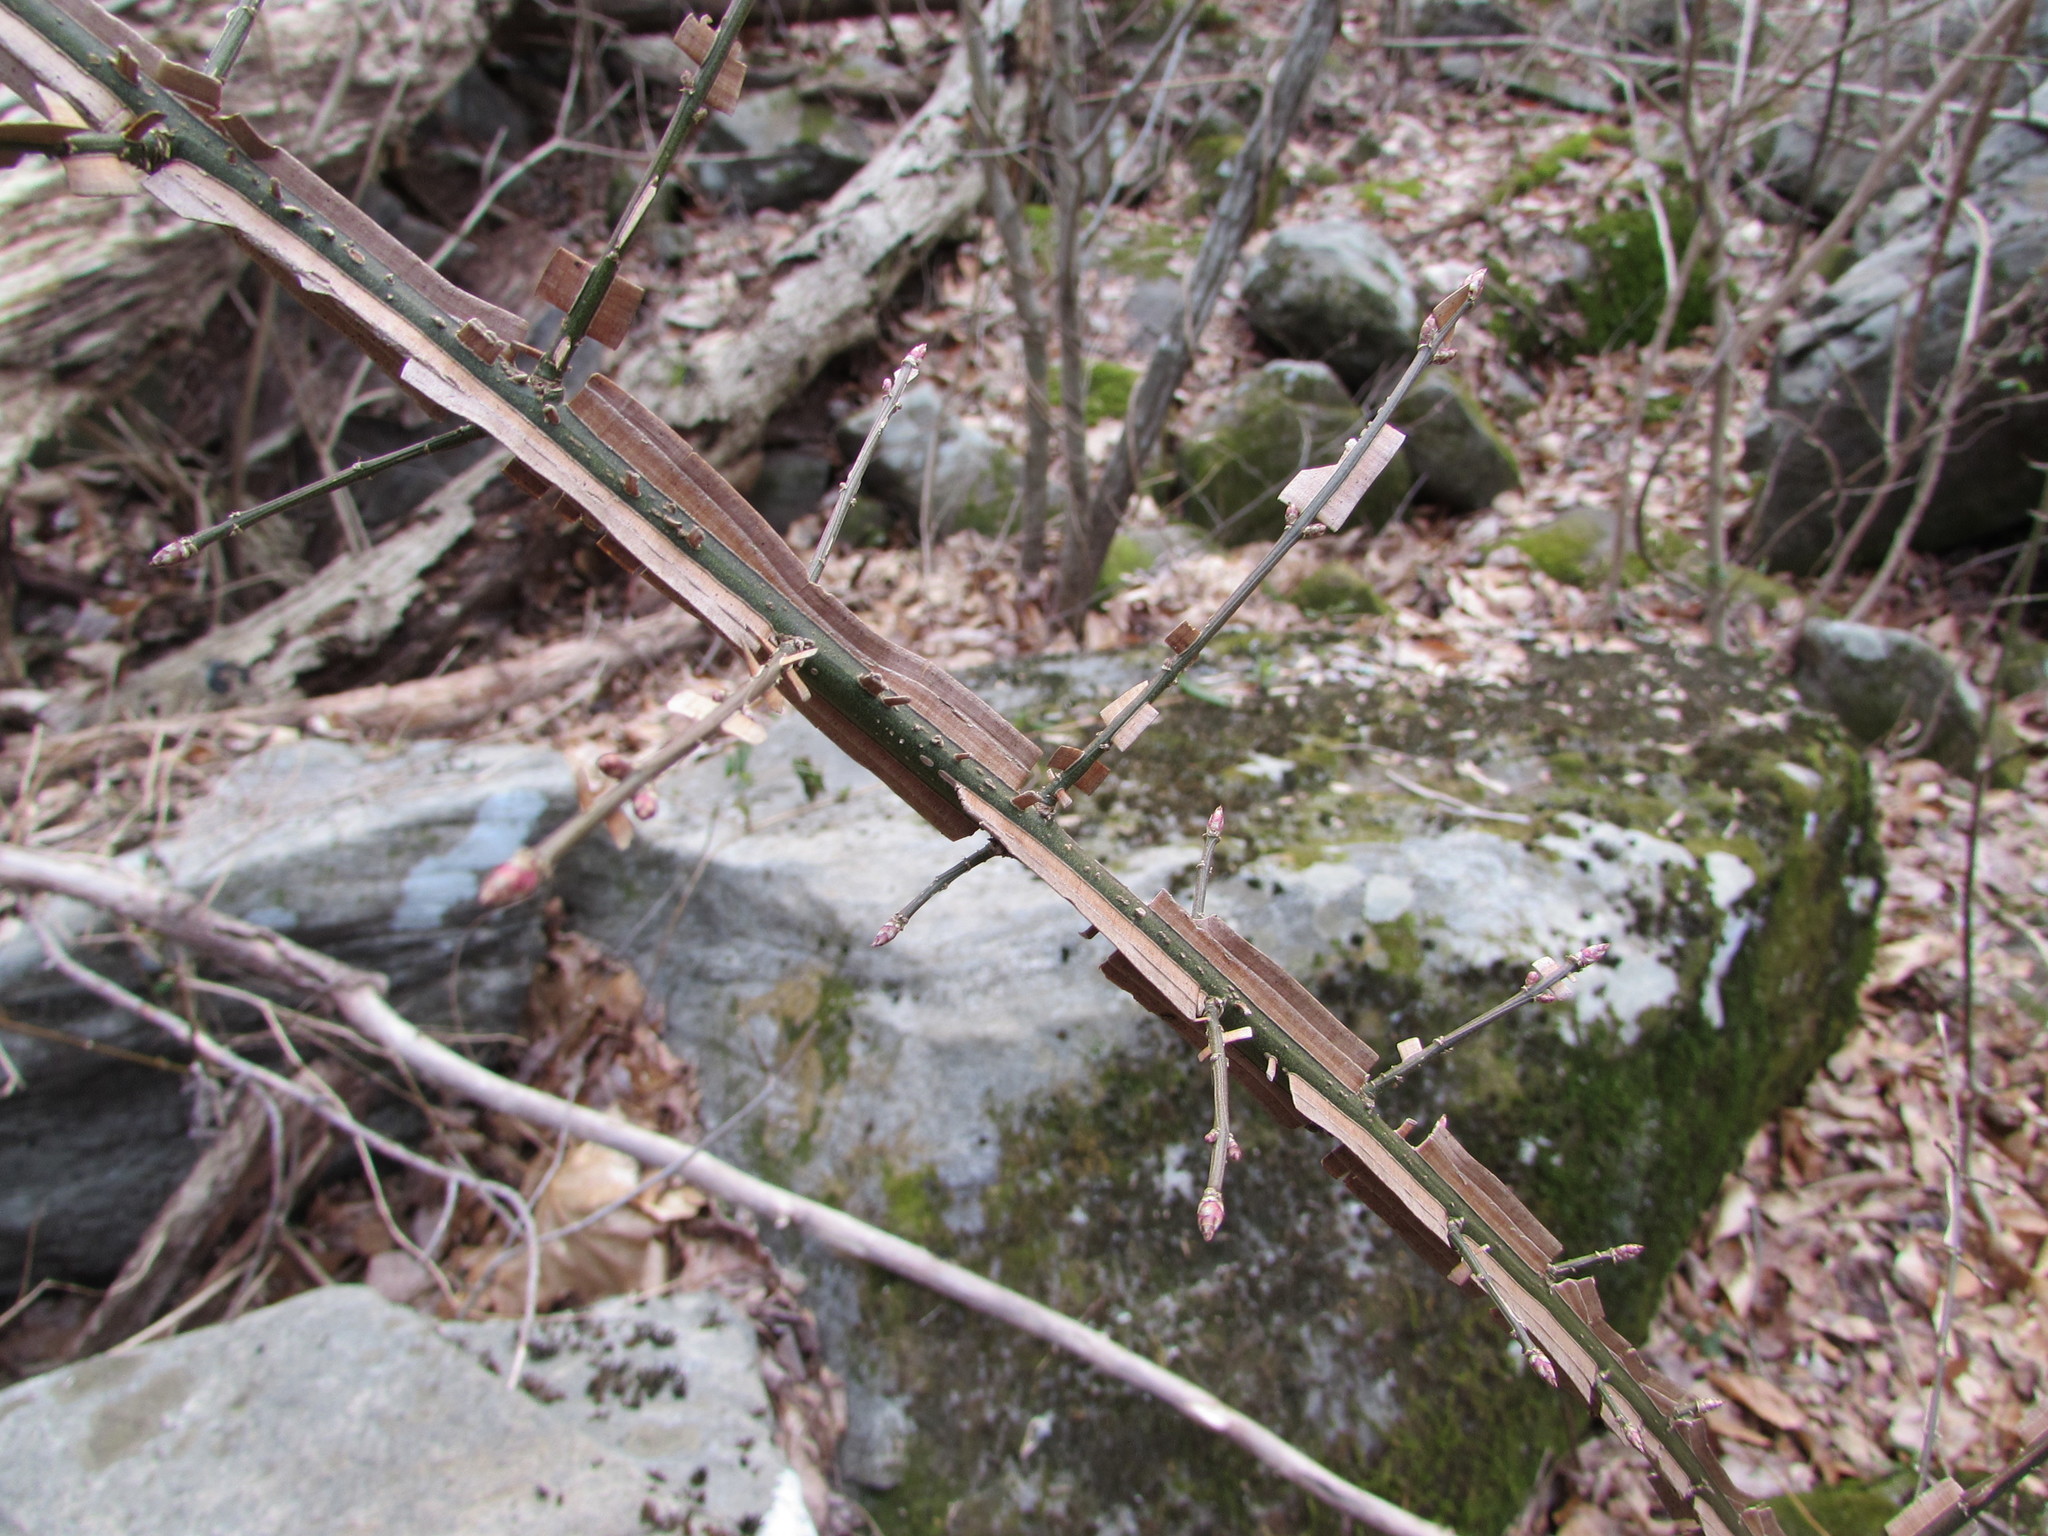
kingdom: Plantae
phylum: Tracheophyta
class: Magnoliopsida
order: Celastrales
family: Celastraceae
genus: Euonymus
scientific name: Euonymus alatus
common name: Winged euonymus
